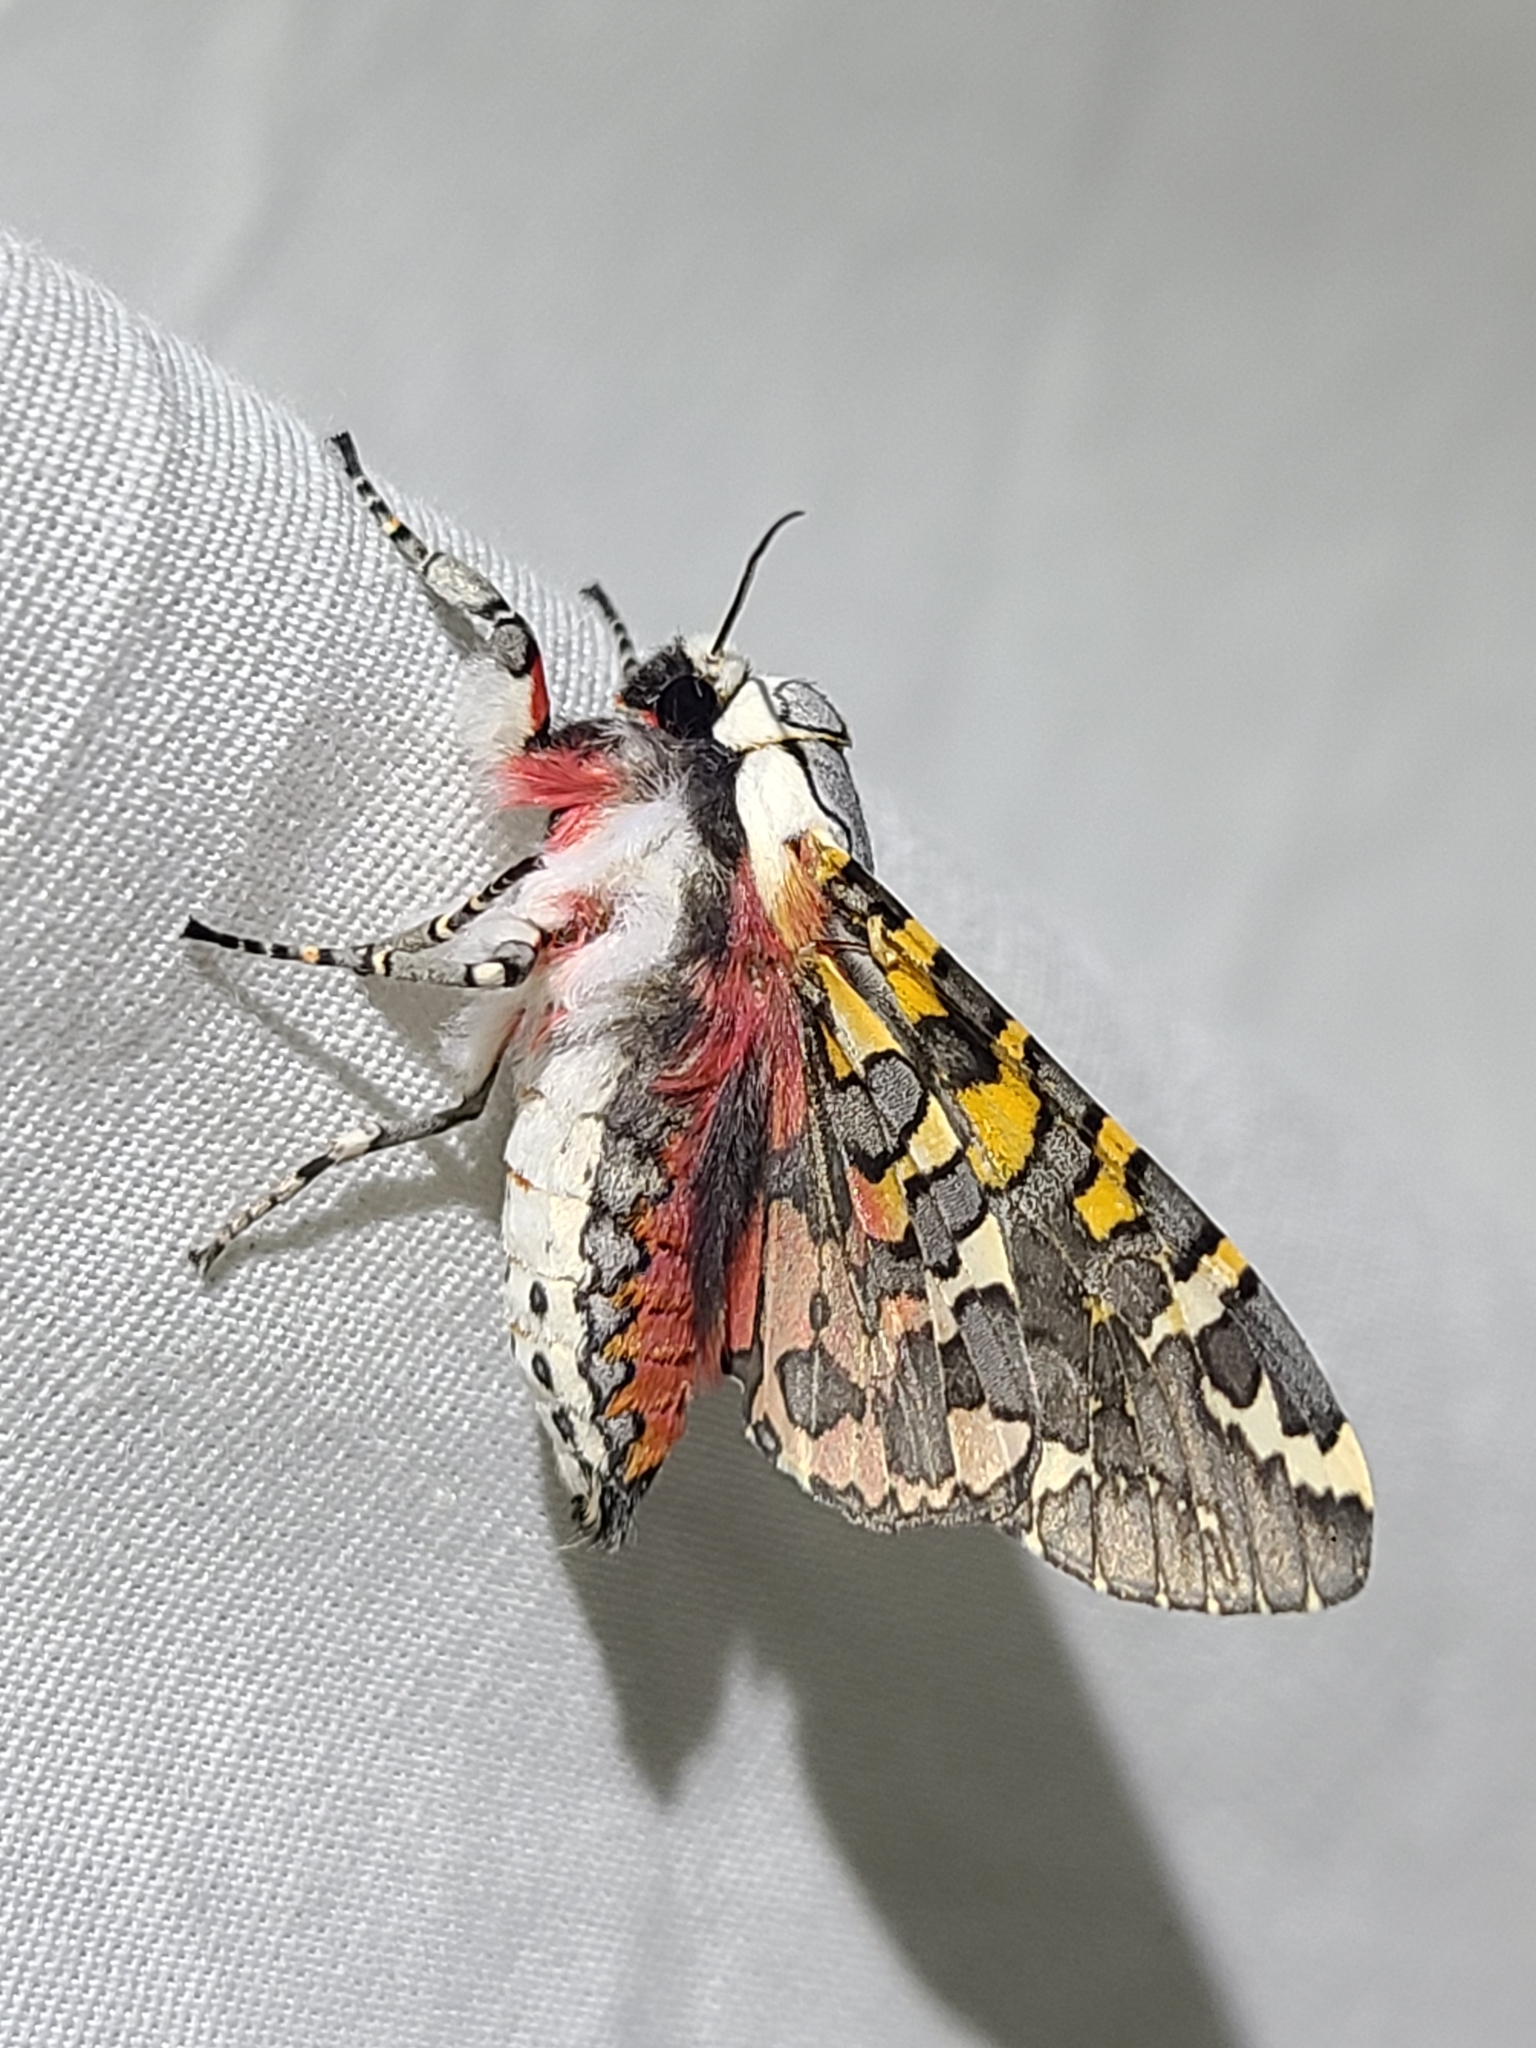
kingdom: Animalia
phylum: Arthropoda
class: Insecta
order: Lepidoptera
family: Erebidae
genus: Arachnis
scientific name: Arachnis picta
